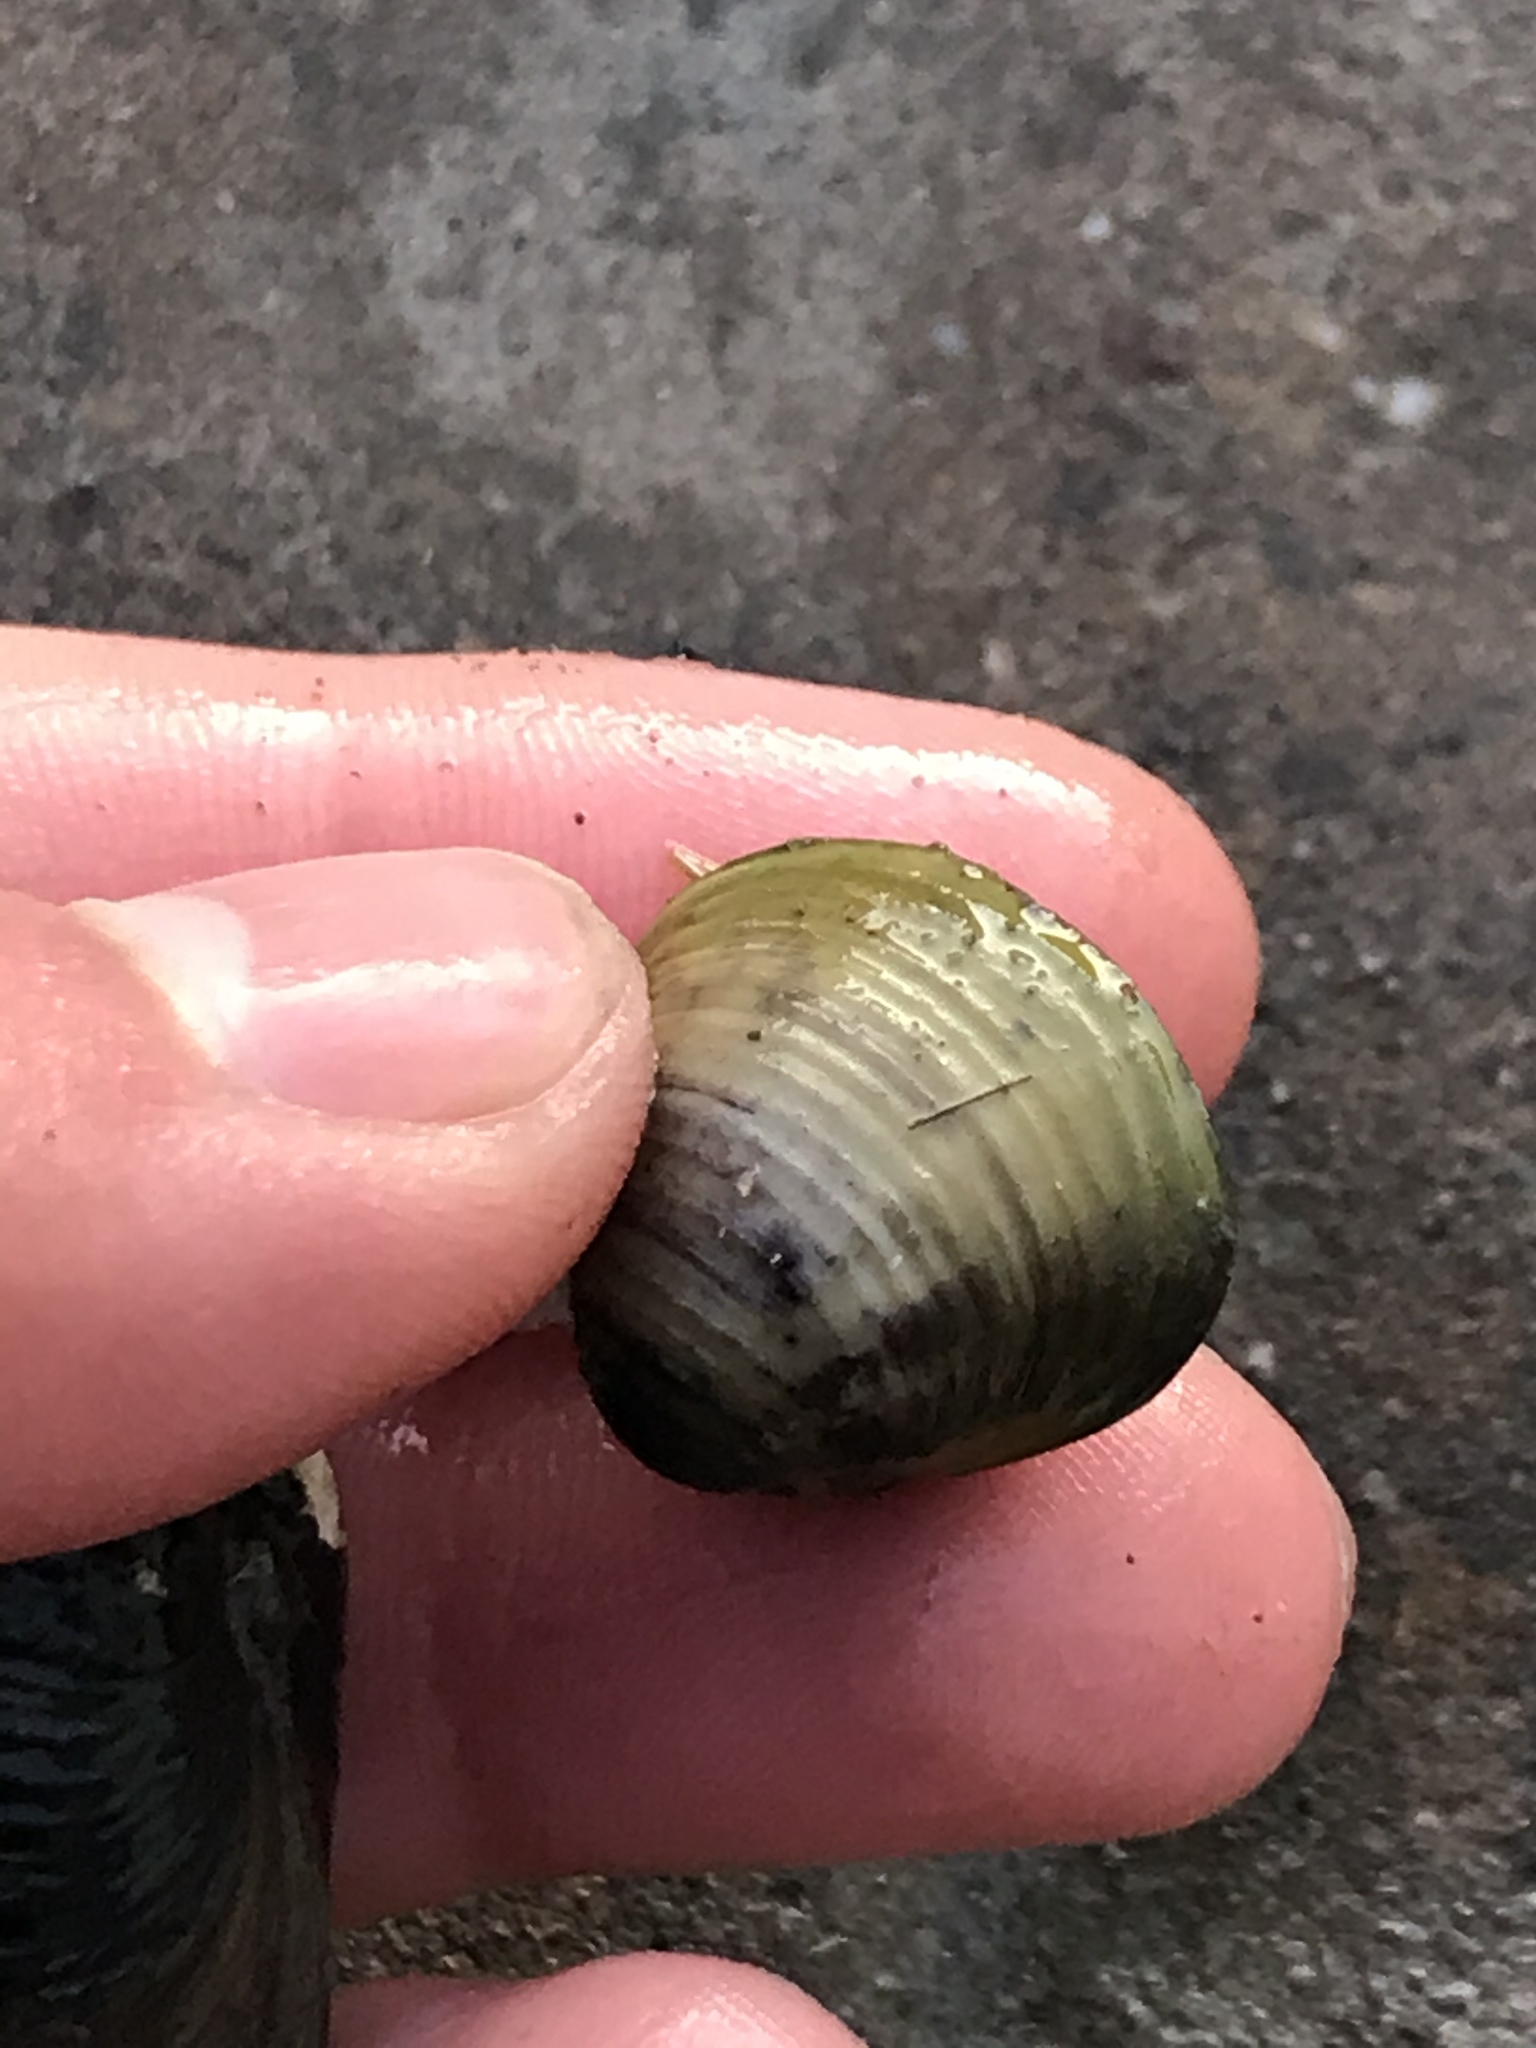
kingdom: Animalia
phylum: Mollusca
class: Bivalvia
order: Venerida
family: Cyrenidae
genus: Corbicula
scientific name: Corbicula fluminea
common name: Asian clam
